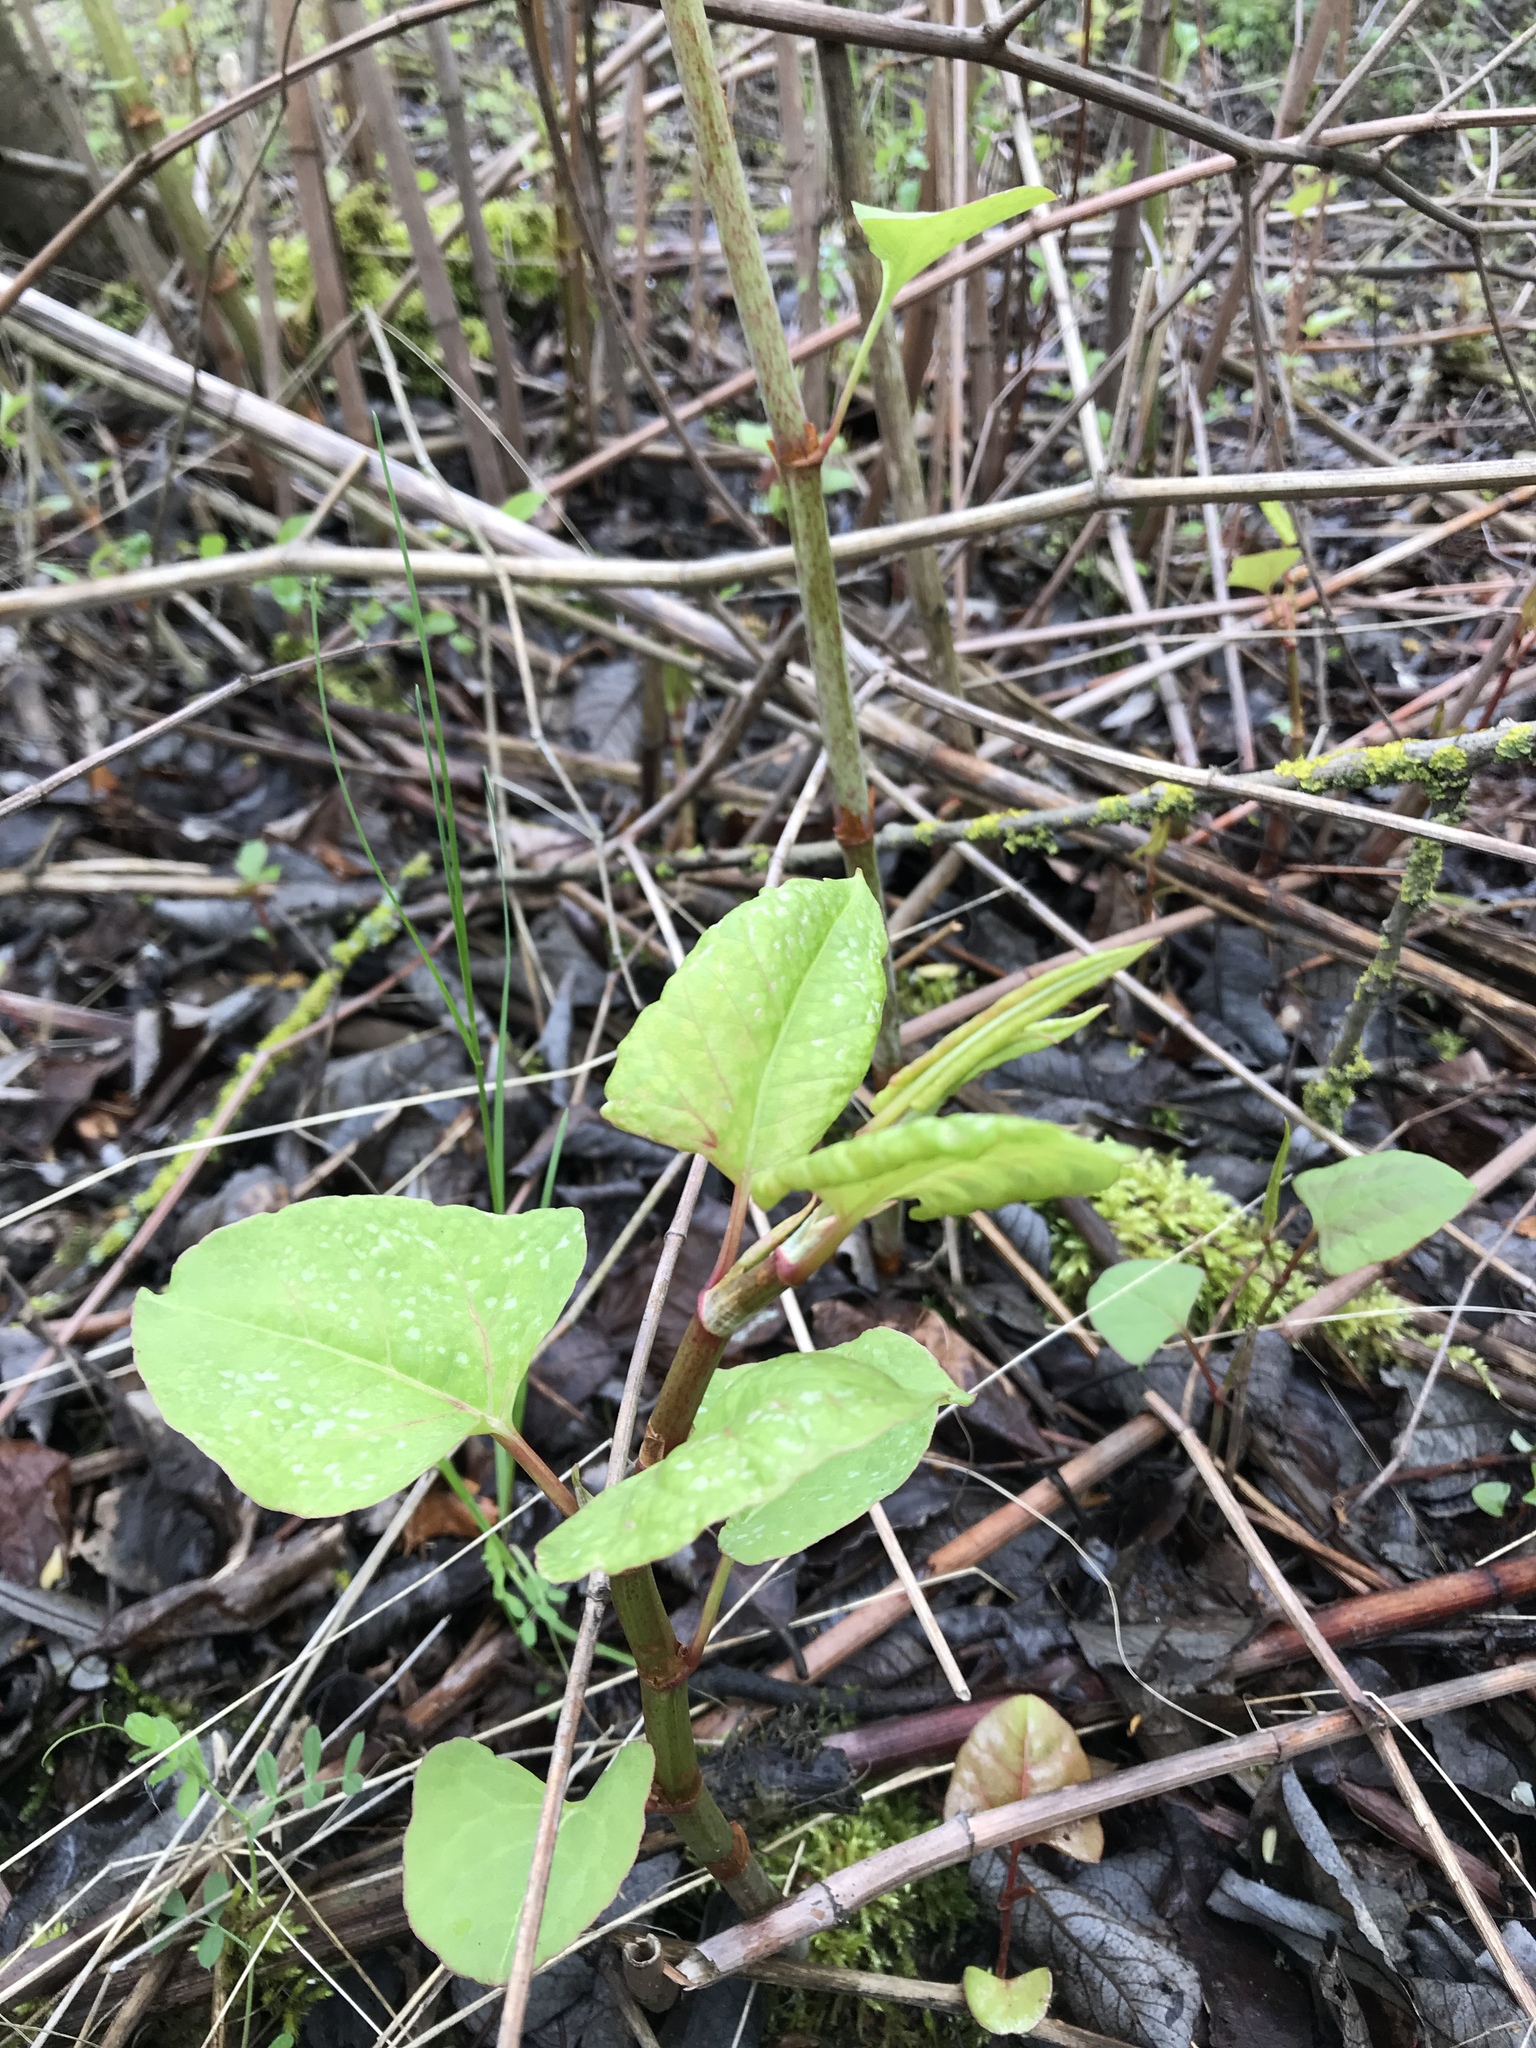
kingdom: Plantae
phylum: Tracheophyta
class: Magnoliopsida
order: Caryophyllales
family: Polygonaceae
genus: Reynoutria
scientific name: Reynoutria japonica
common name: Japanese knotweed
